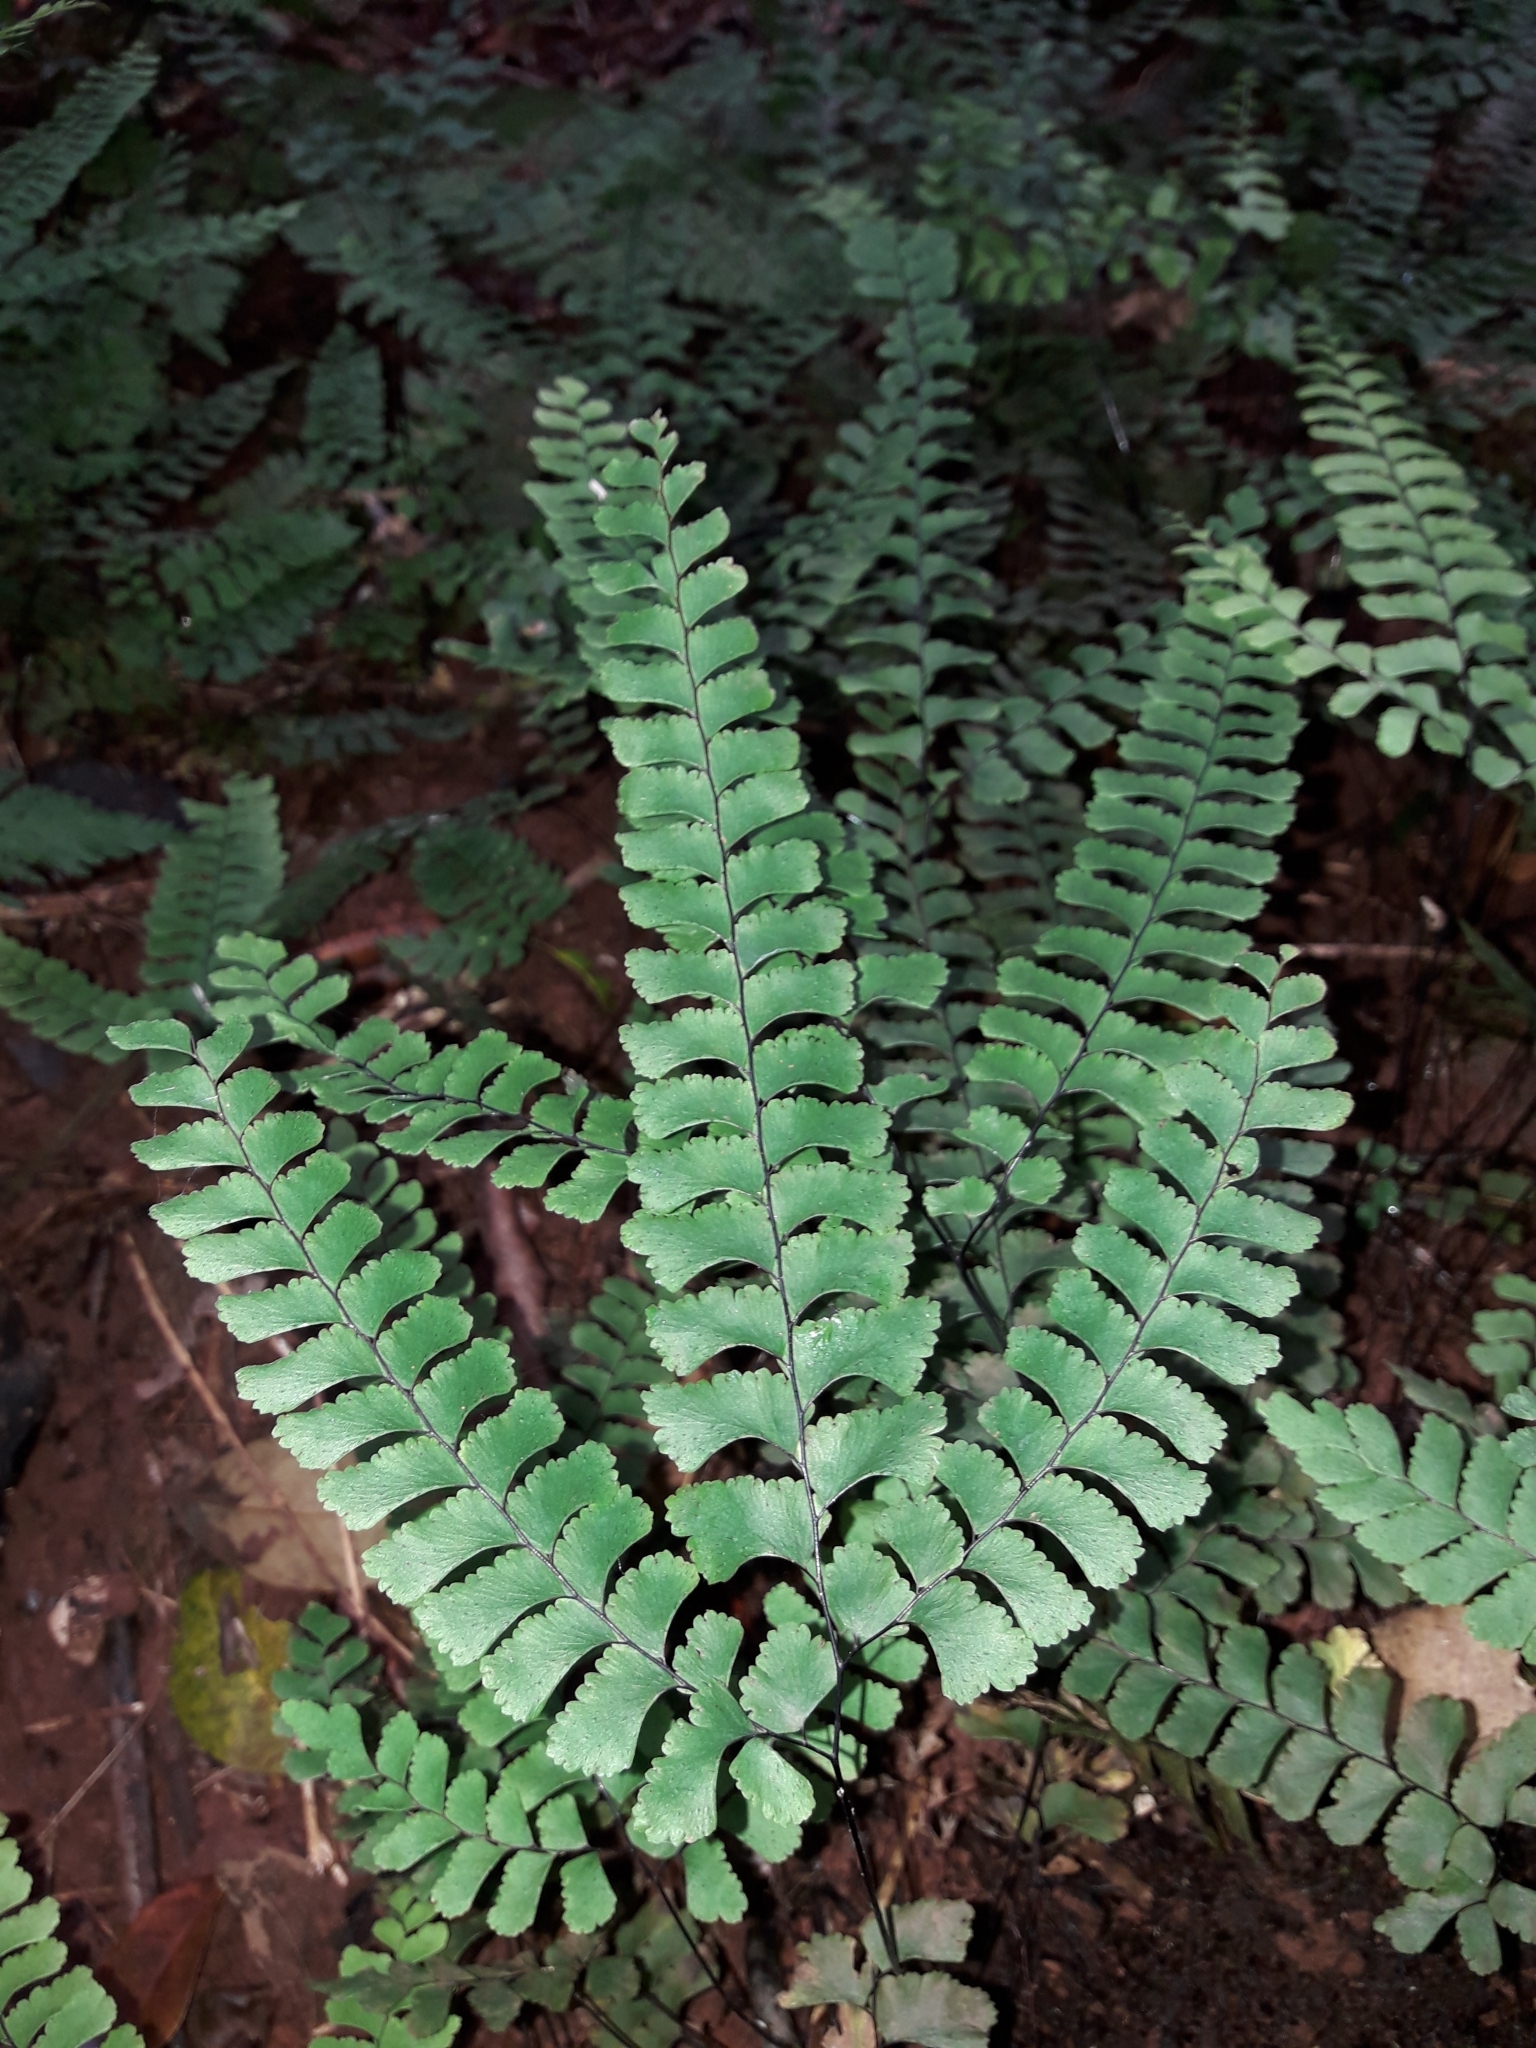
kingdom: Plantae
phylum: Tracheophyta
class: Polypodiopsida
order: Polypodiales
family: Pteridaceae
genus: Adiantum
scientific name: Adiantum diaphanum
